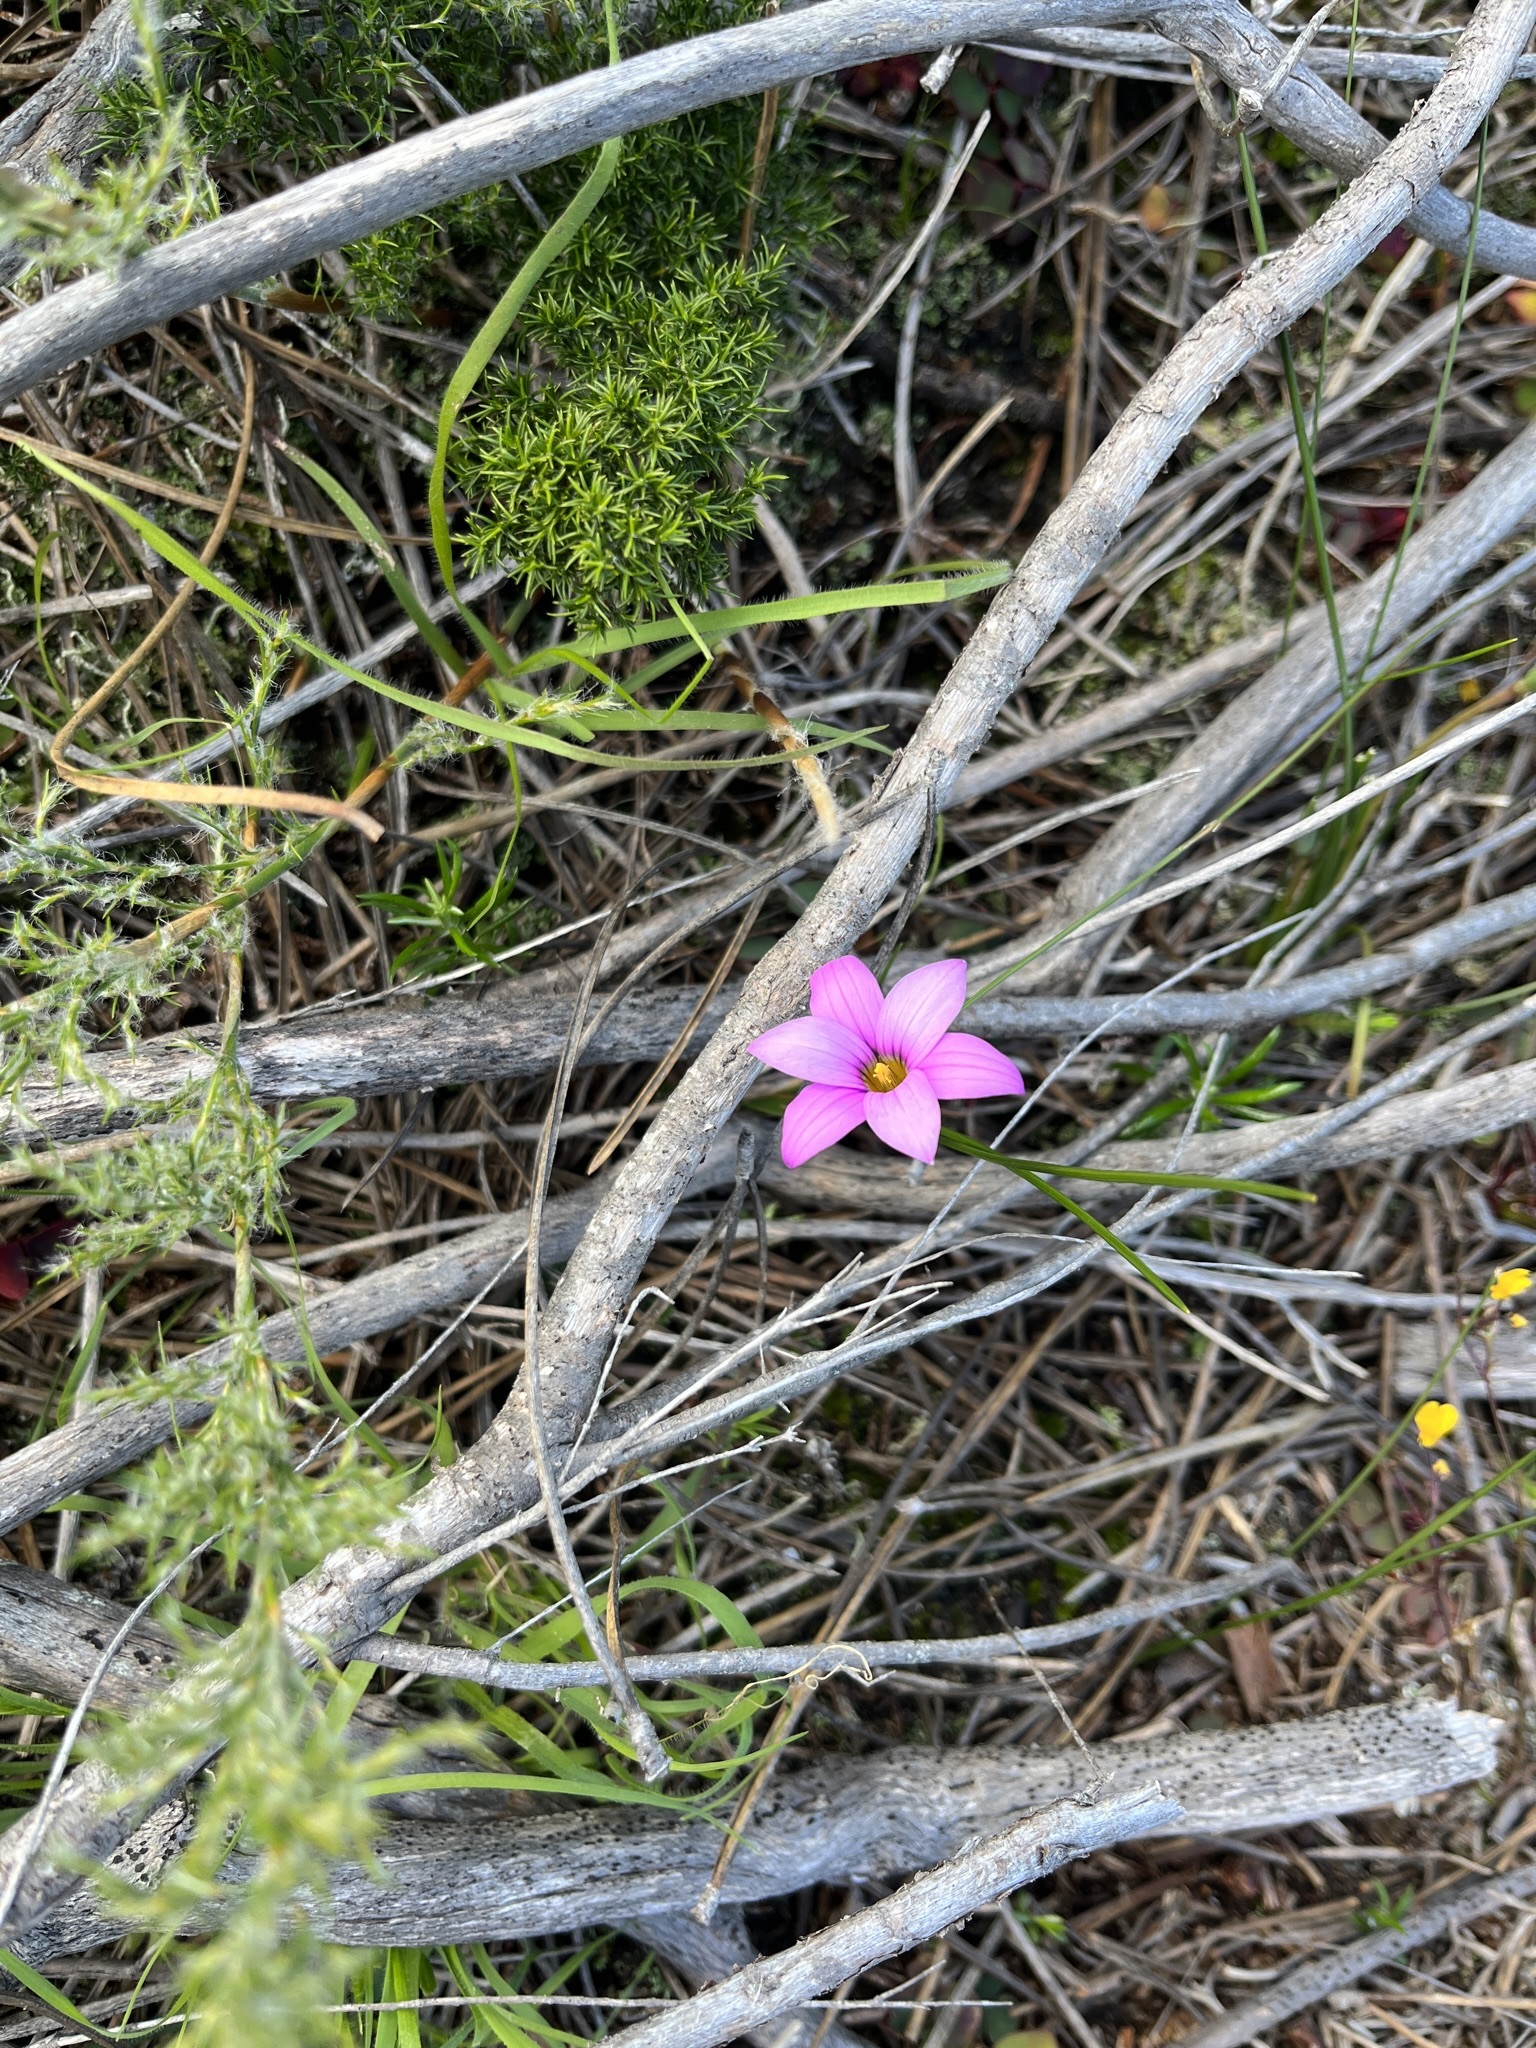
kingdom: Plantae
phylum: Tracheophyta
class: Liliopsida
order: Asparagales
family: Iridaceae
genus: Romulea
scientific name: Romulea rosea
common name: Oniongrass
